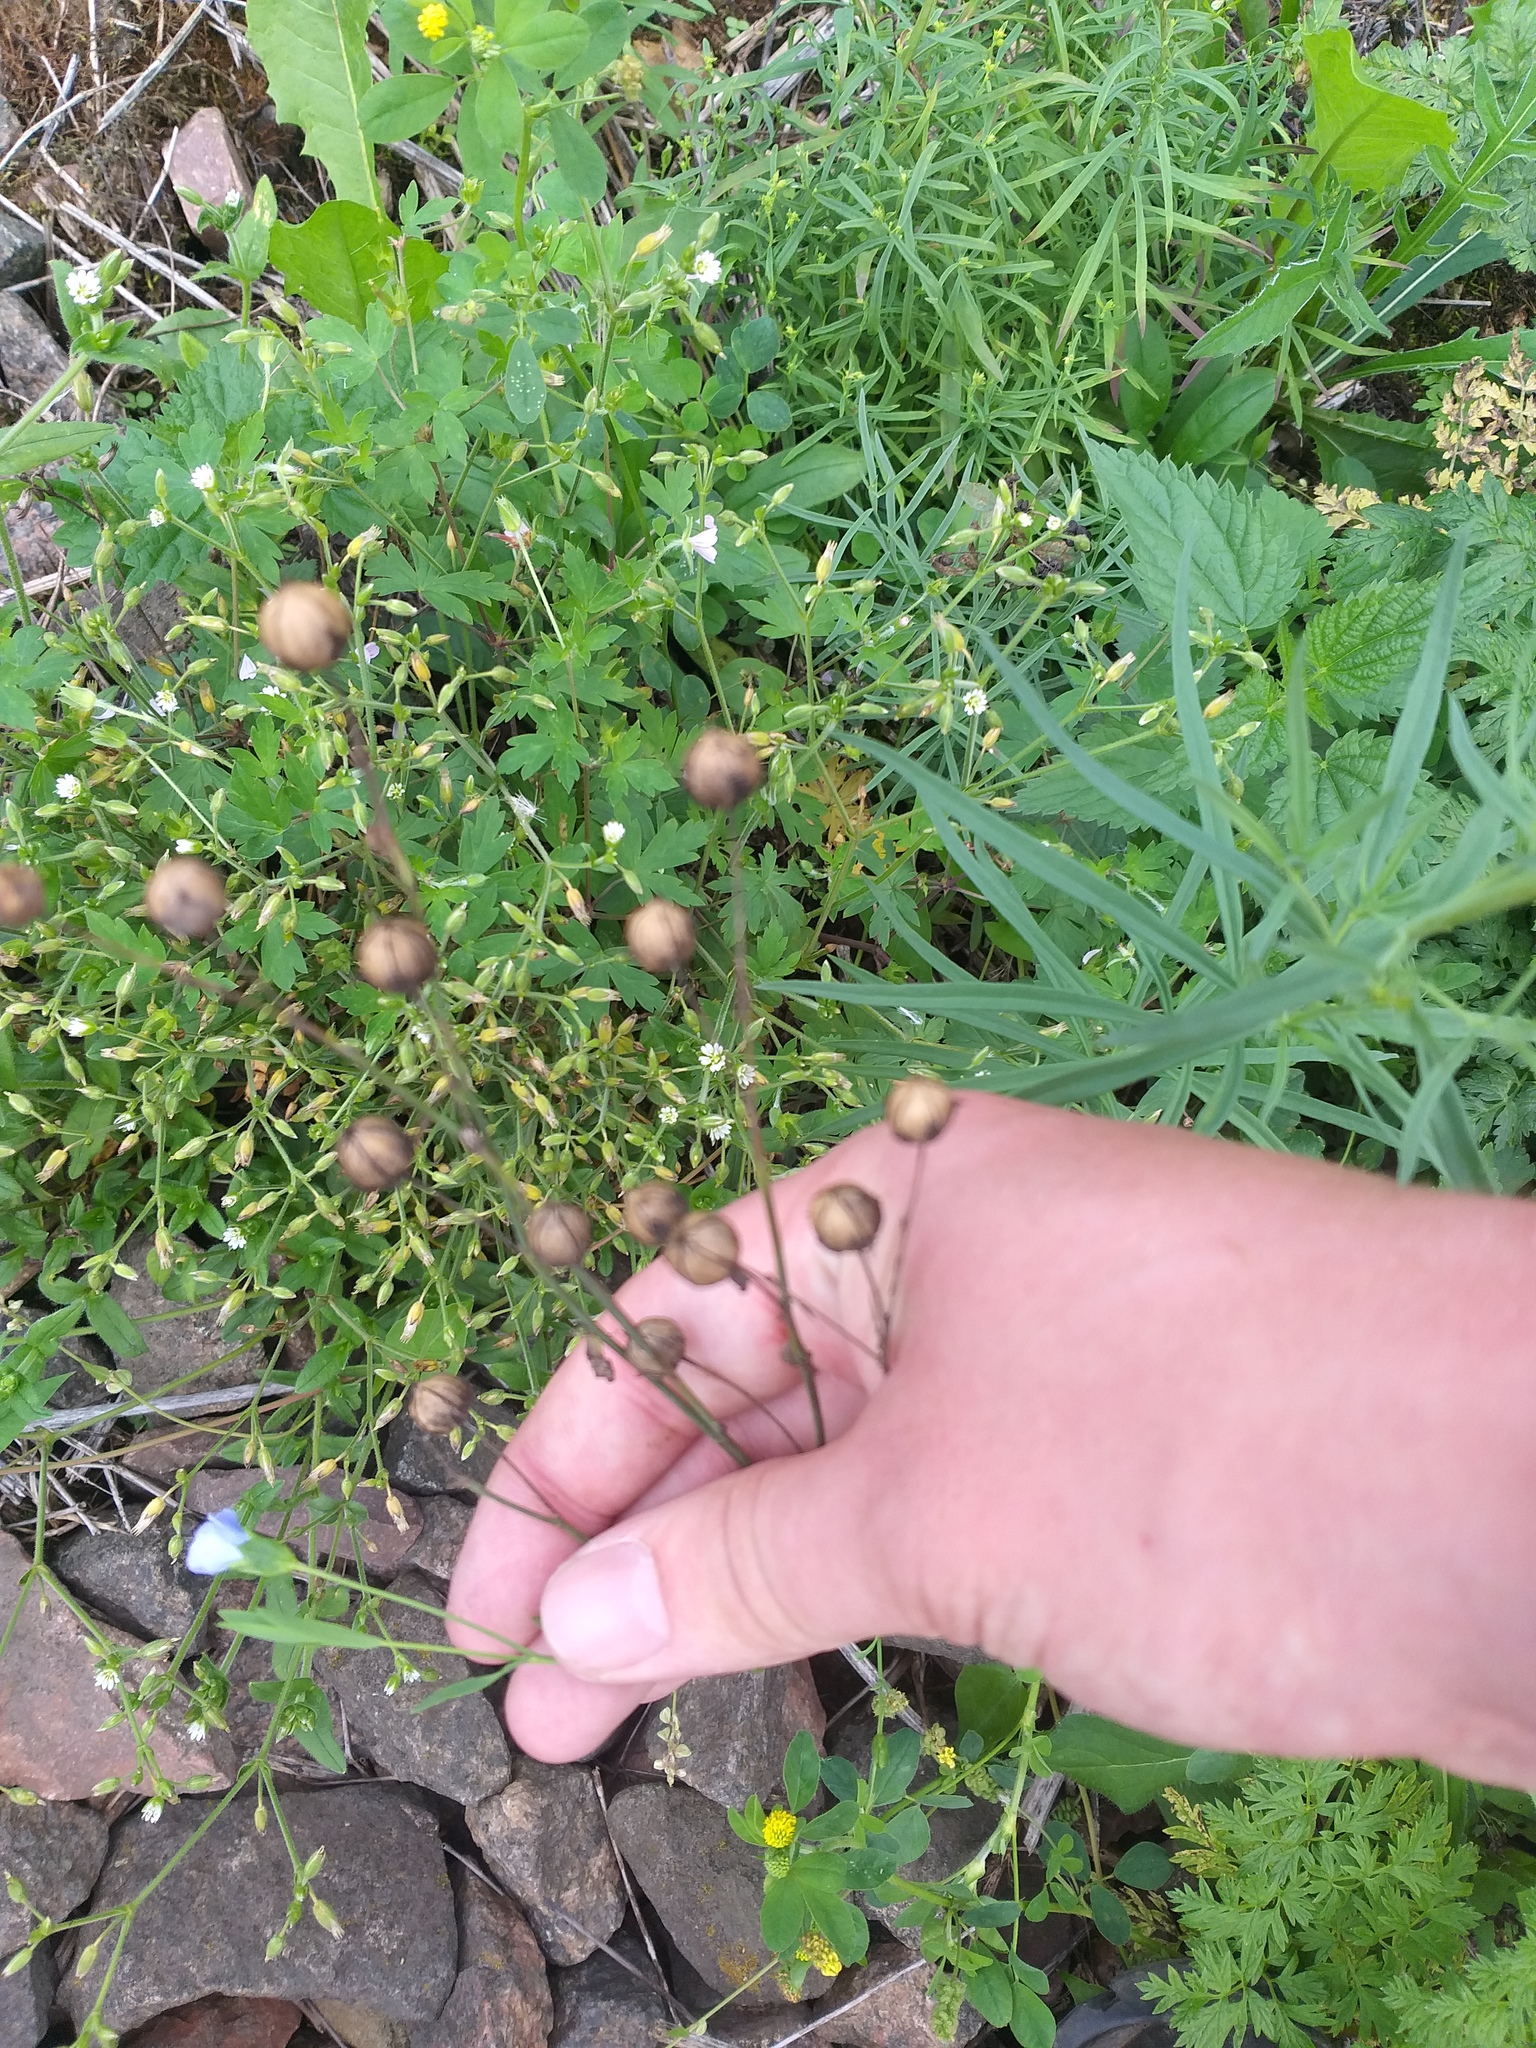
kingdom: Plantae
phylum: Tracheophyta
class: Magnoliopsida
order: Malpighiales
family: Linaceae
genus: Linum
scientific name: Linum usitatissimum
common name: Flax
